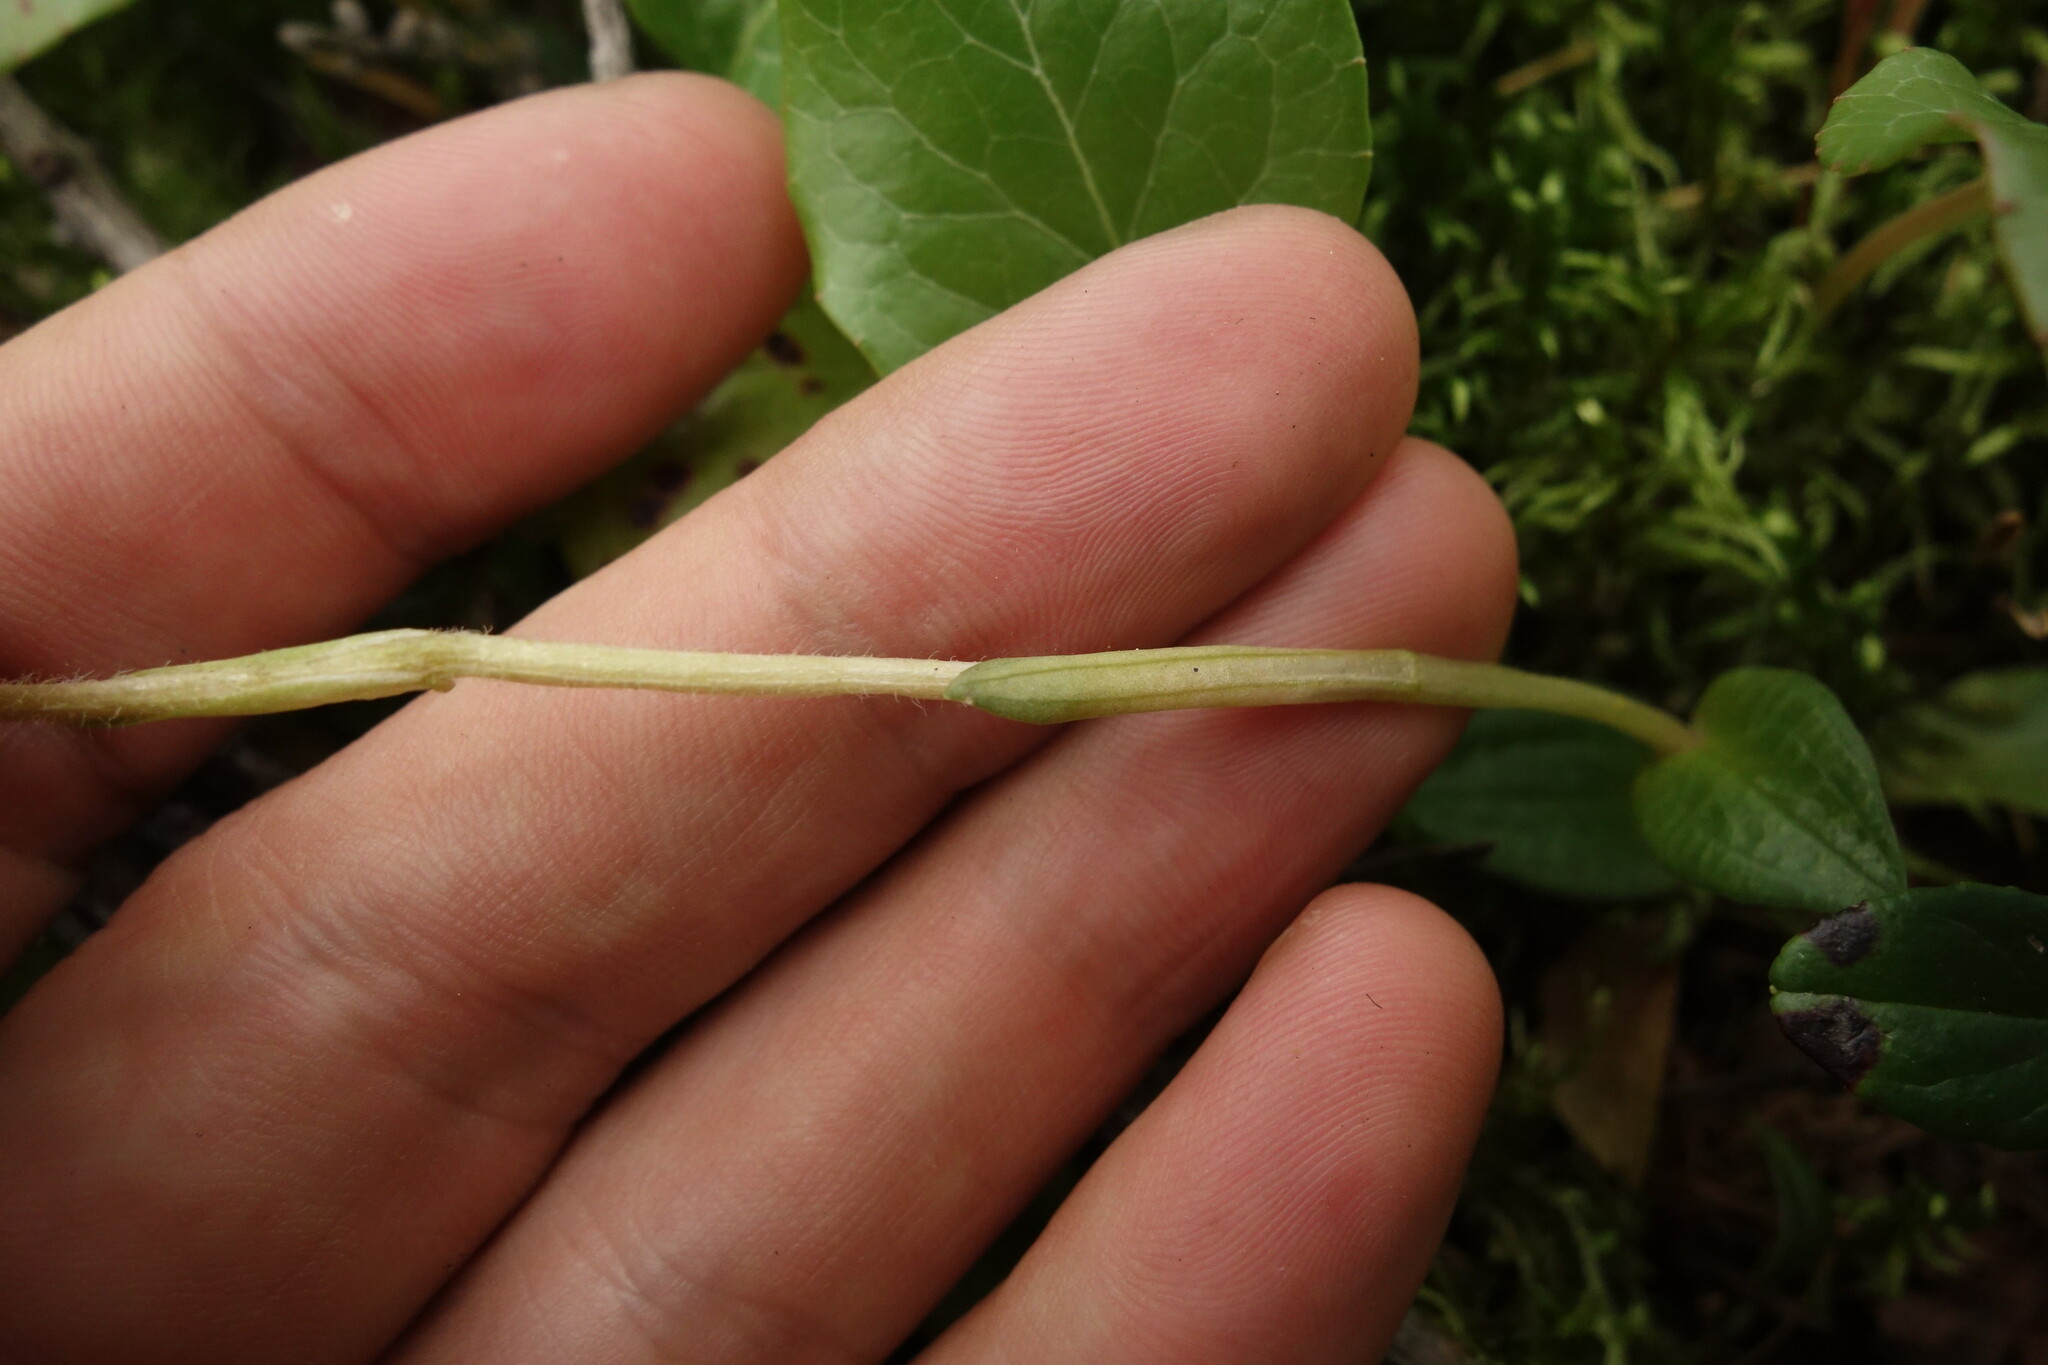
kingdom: Plantae
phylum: Tracheophyta
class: Liliopsida
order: Asparagales
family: Orchidaceae
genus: Goodyera
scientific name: Goodyera repens
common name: Creeping lady's-tresses
